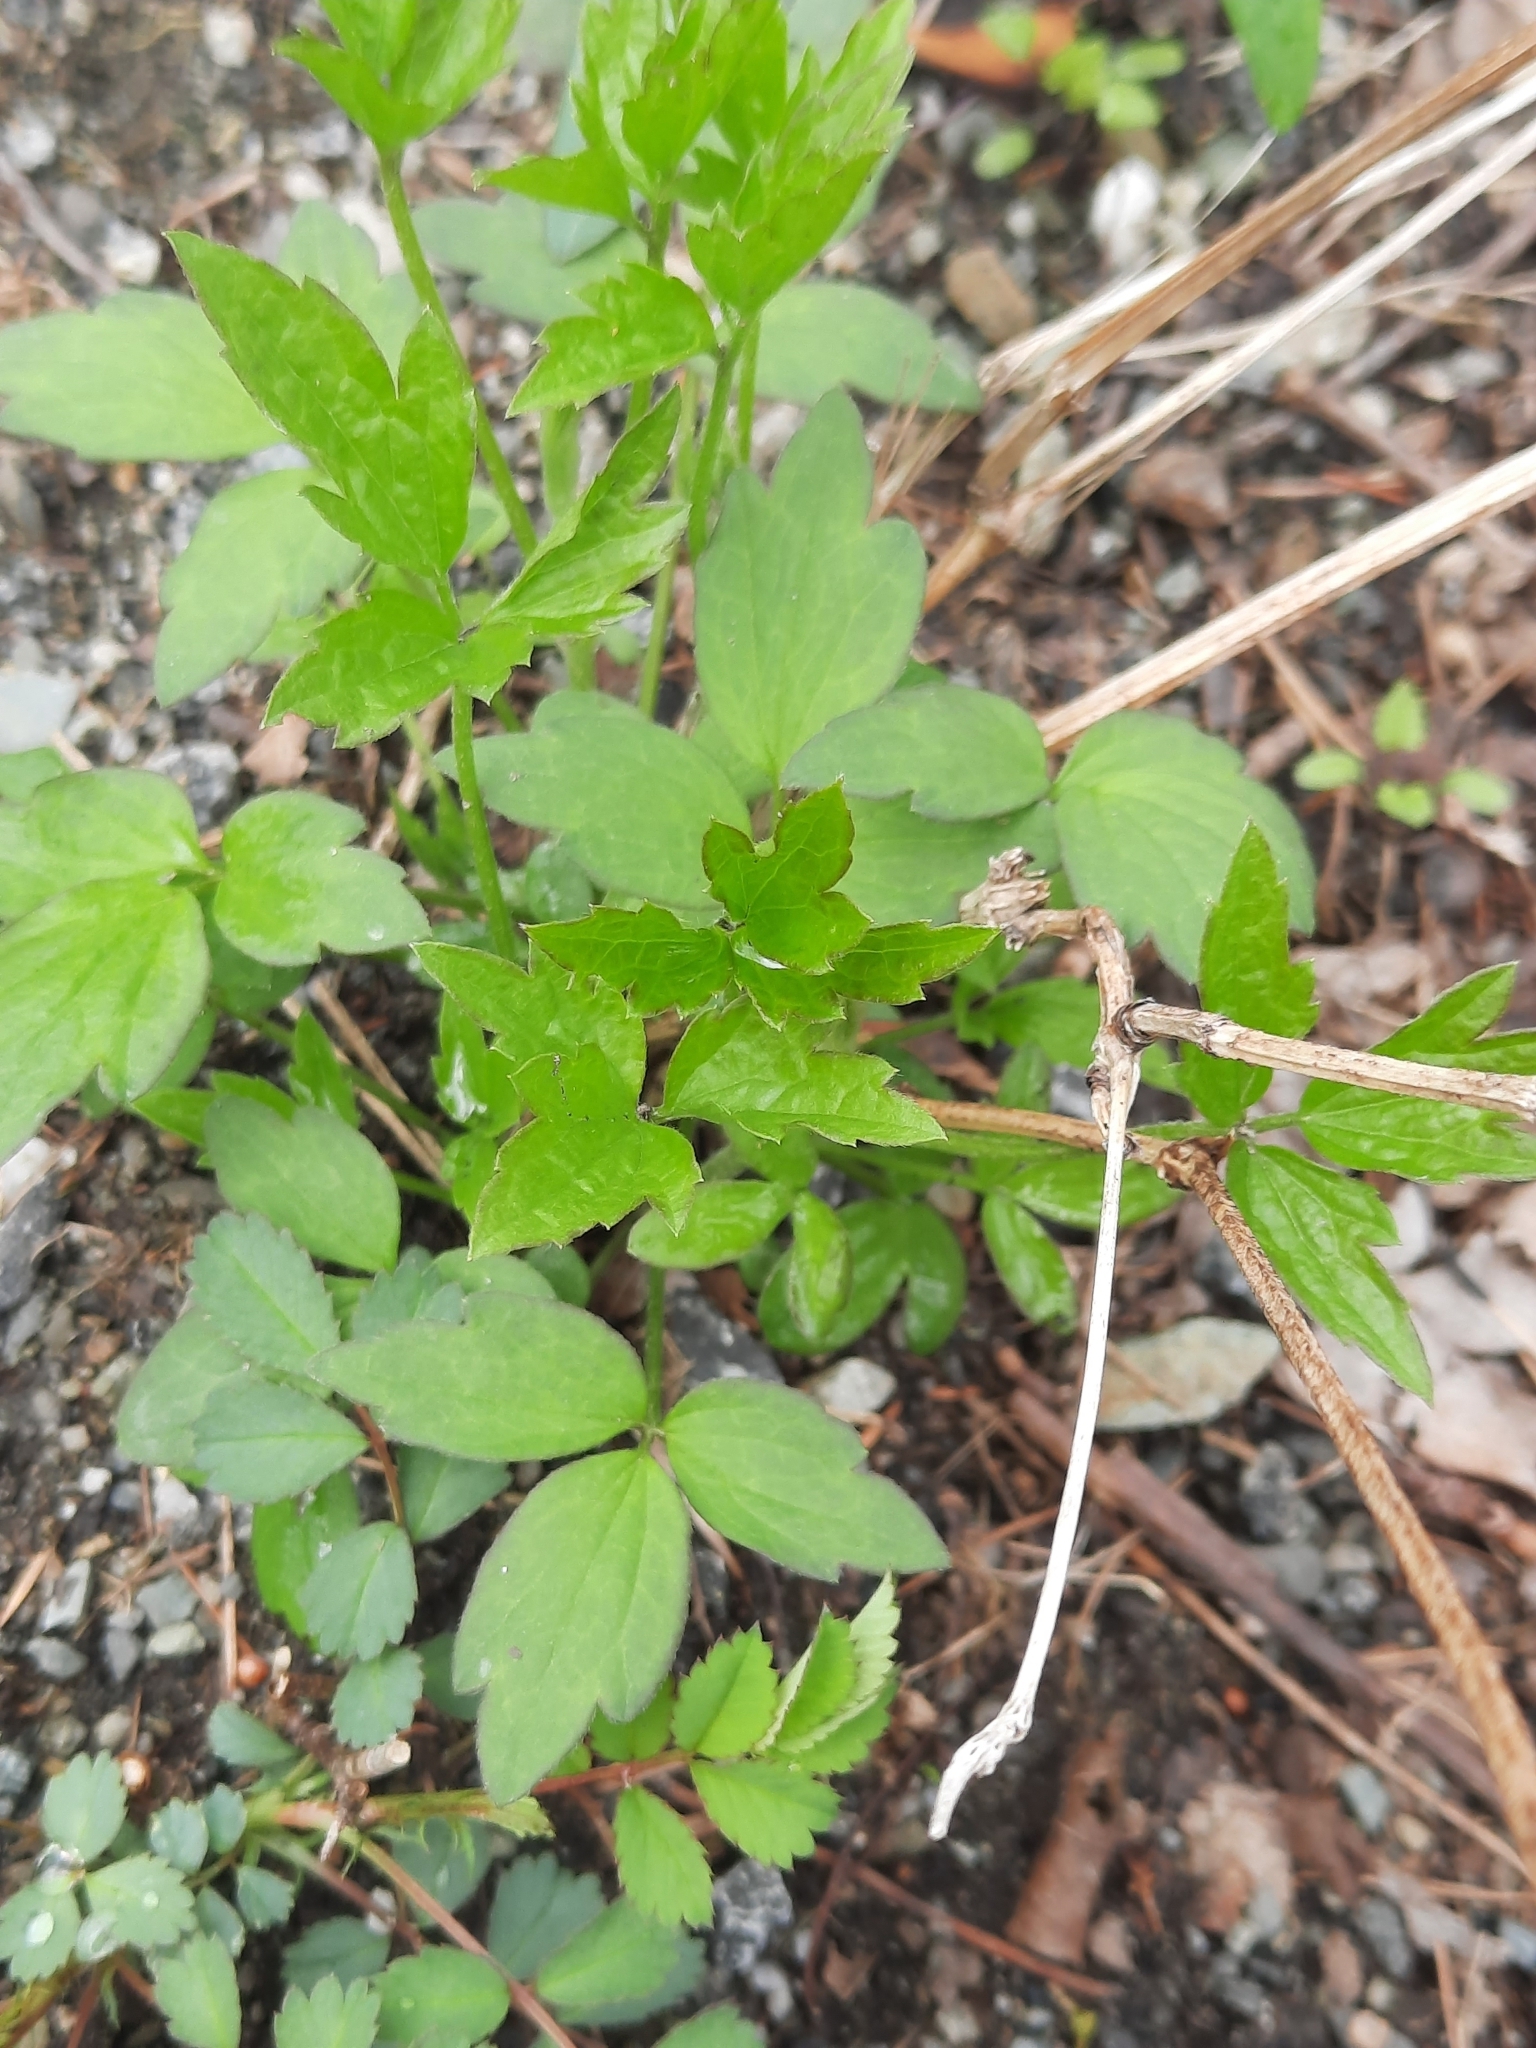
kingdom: Plantae
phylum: Tracheophyta
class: Magnoliopsida
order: Ranunculales
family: Ranunculaceae
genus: Clematis
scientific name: Clematis virginiana
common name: Virgin's-bower
